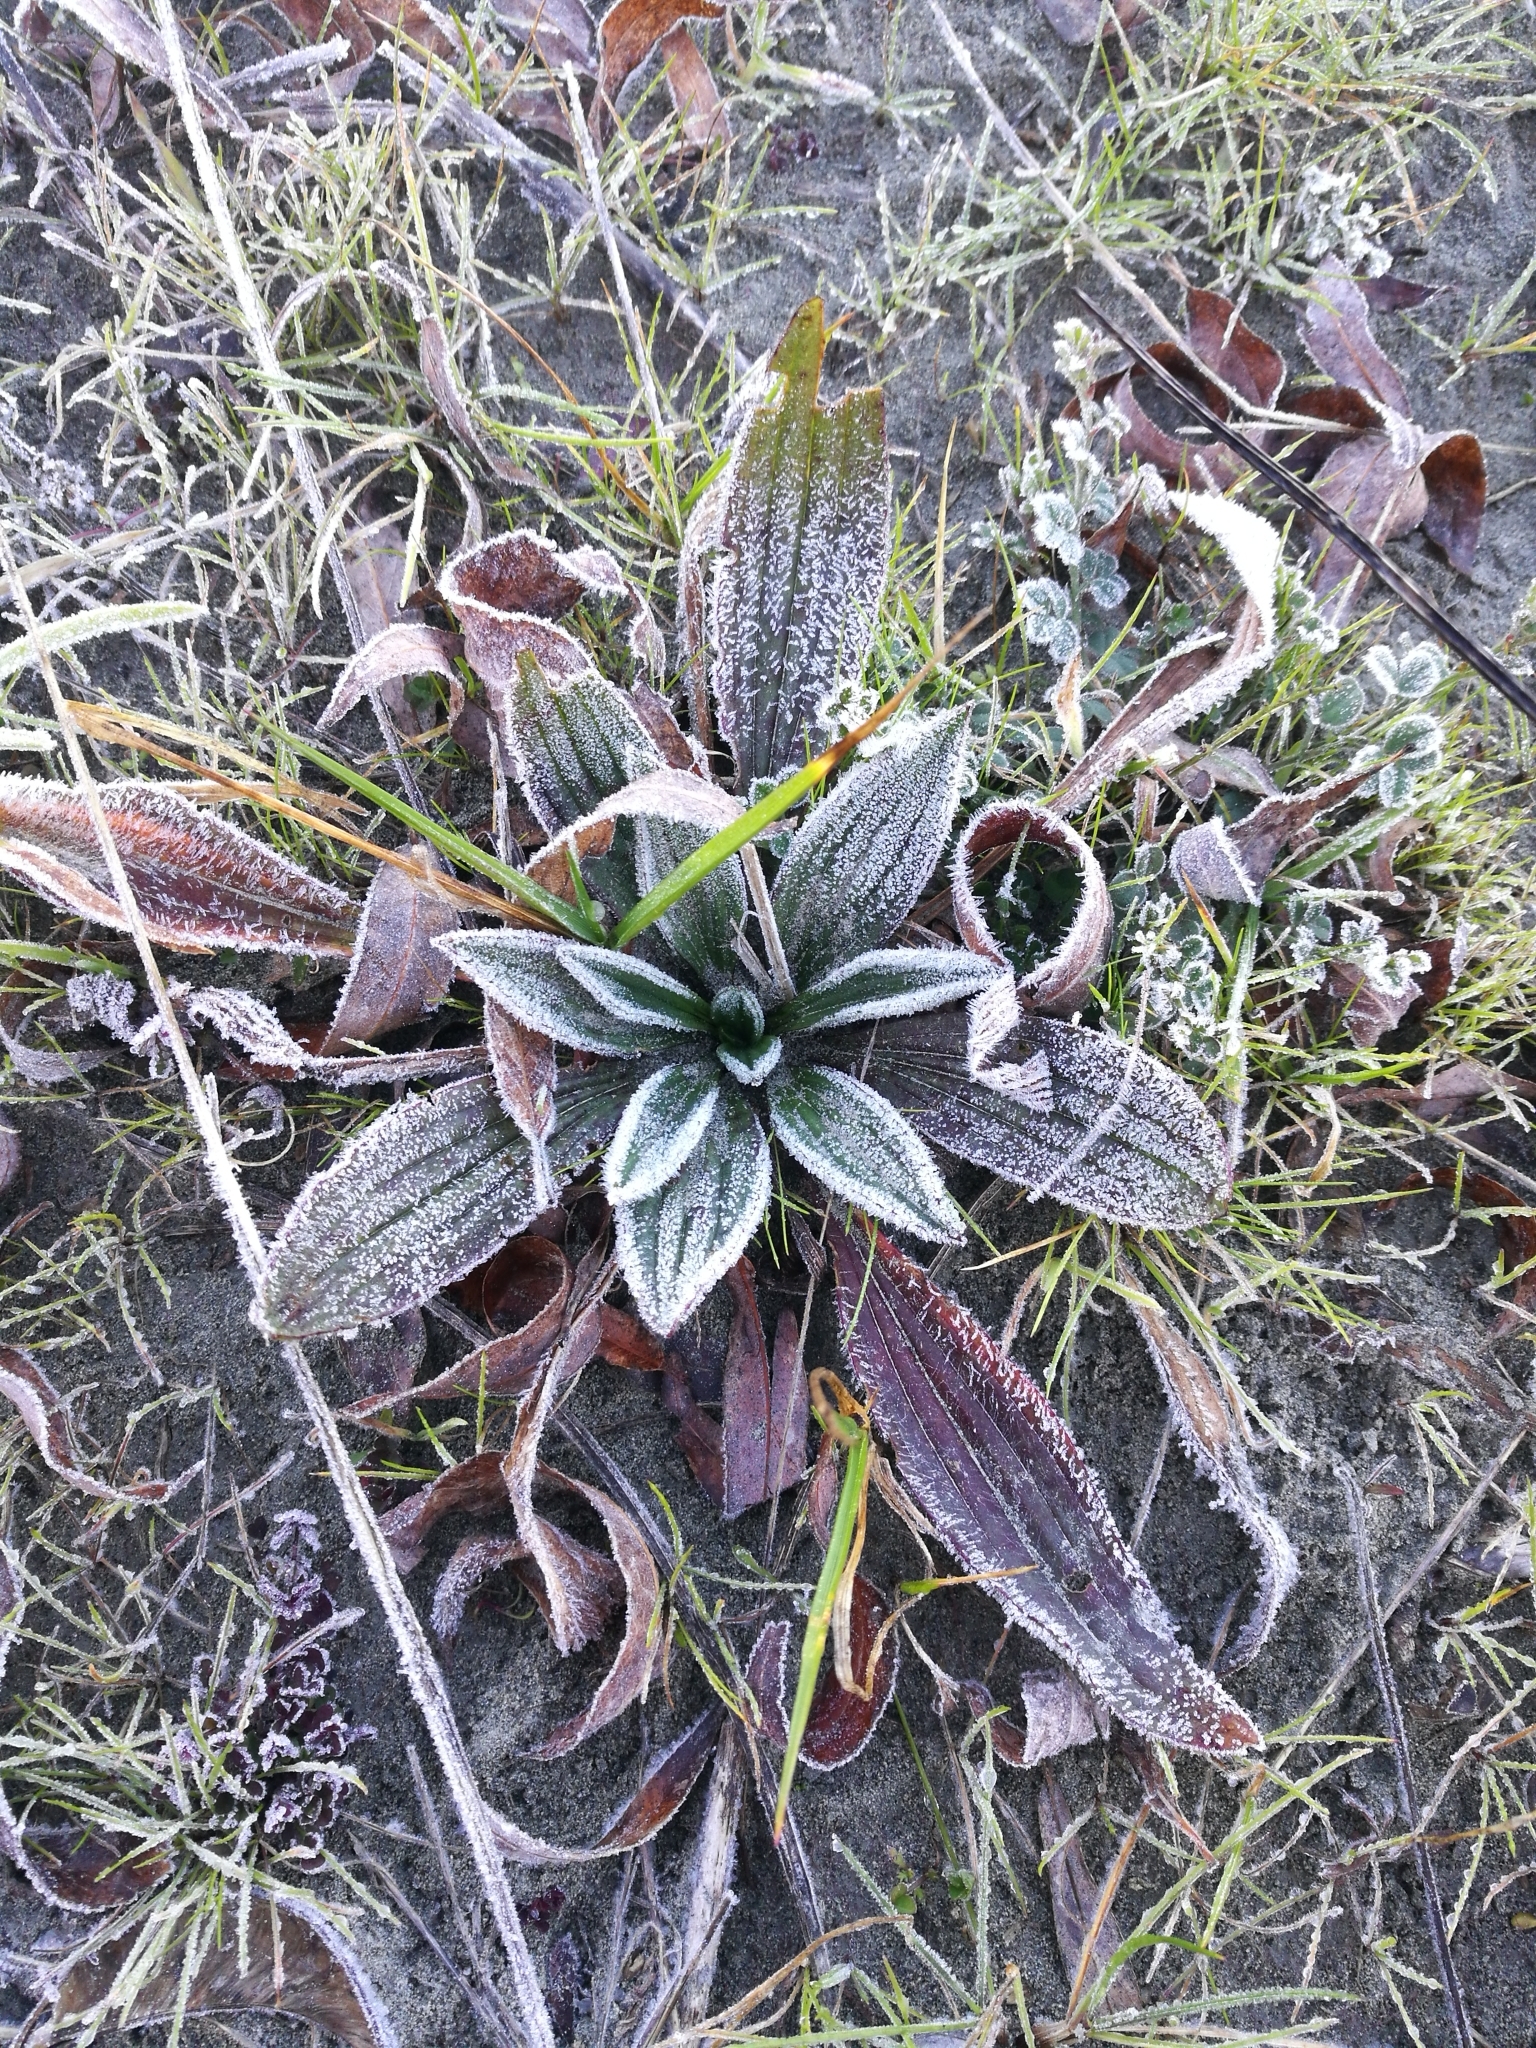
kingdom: Plantae
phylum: Tracheophyta
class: Magnoliopsida
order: Lamiales
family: Plantaginaceae
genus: Plantago
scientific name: Plantago lanceolata
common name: Ribwort plantain
